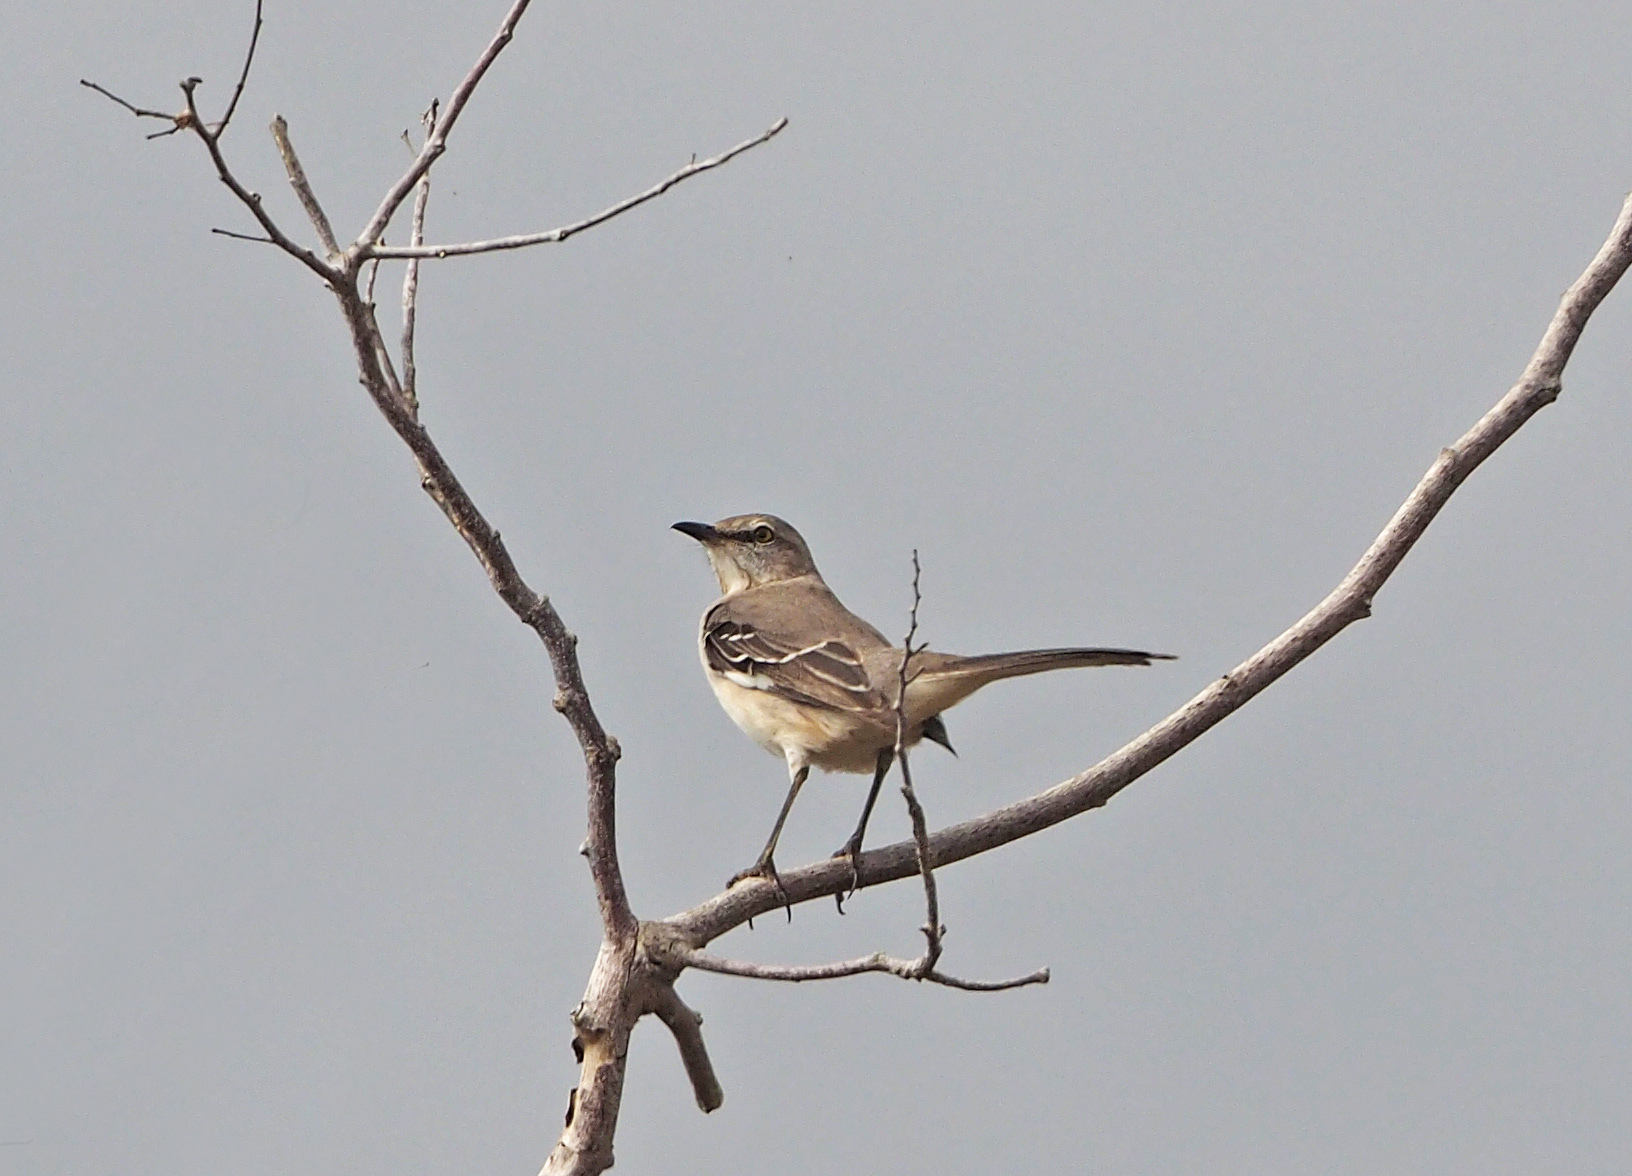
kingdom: Animalia
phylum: Chordata
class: Aves
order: Passeriformes
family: Mimidae
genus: Mimus
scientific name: Mimus polyglottos
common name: Northern mockingbird
